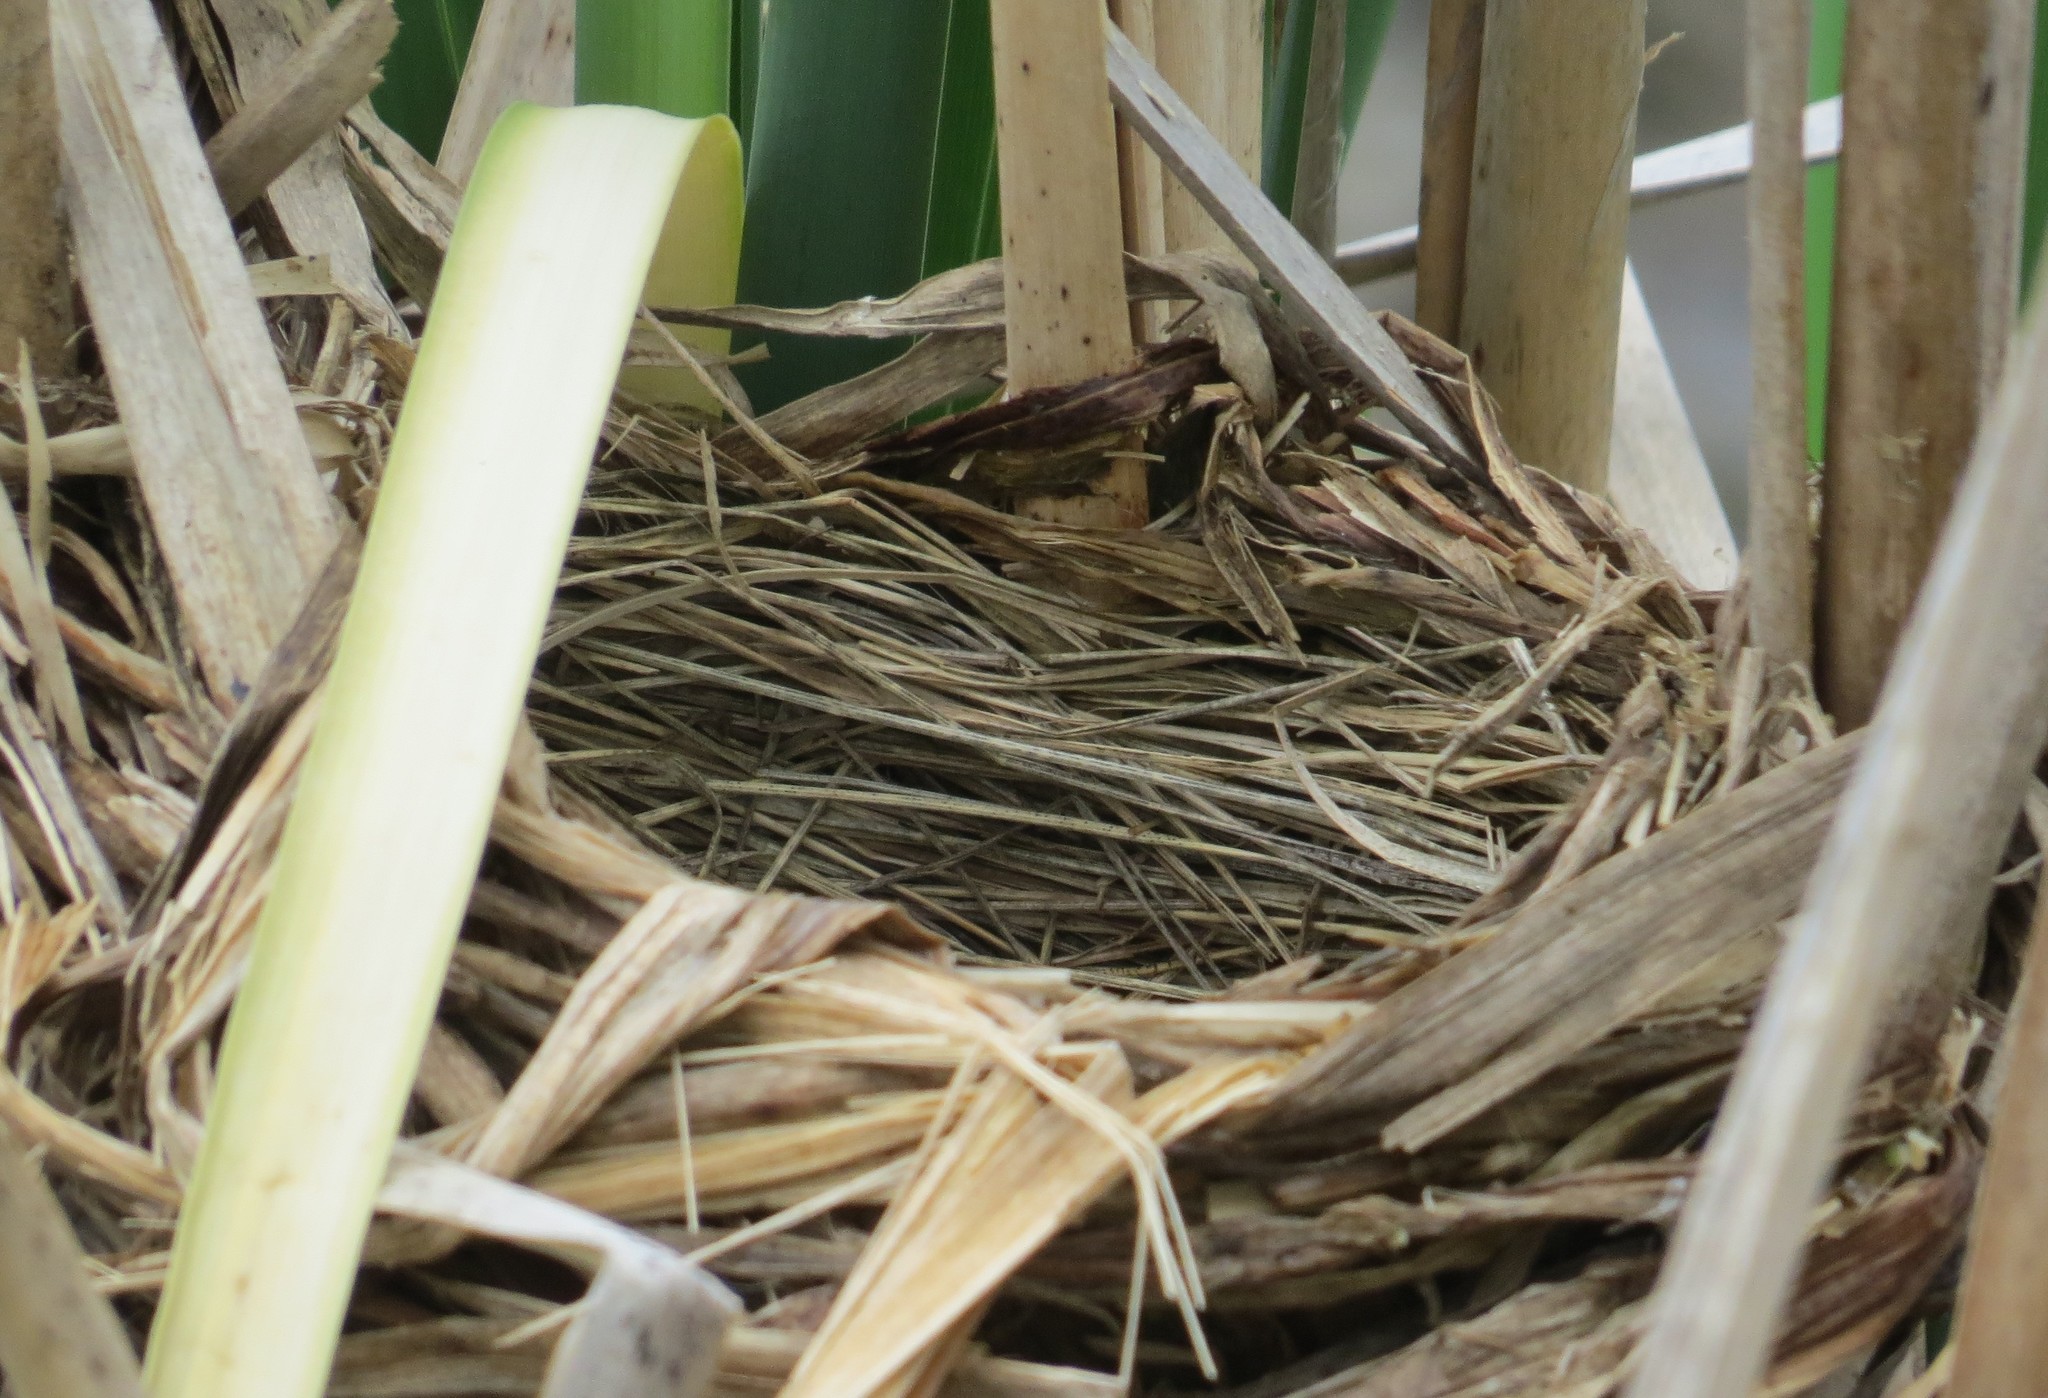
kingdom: Animalia
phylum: Chordata
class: Aves
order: Passeriformes
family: Icteridae
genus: Agelaius
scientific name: Agelaius phoeniceus
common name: Red-winged blackbird
